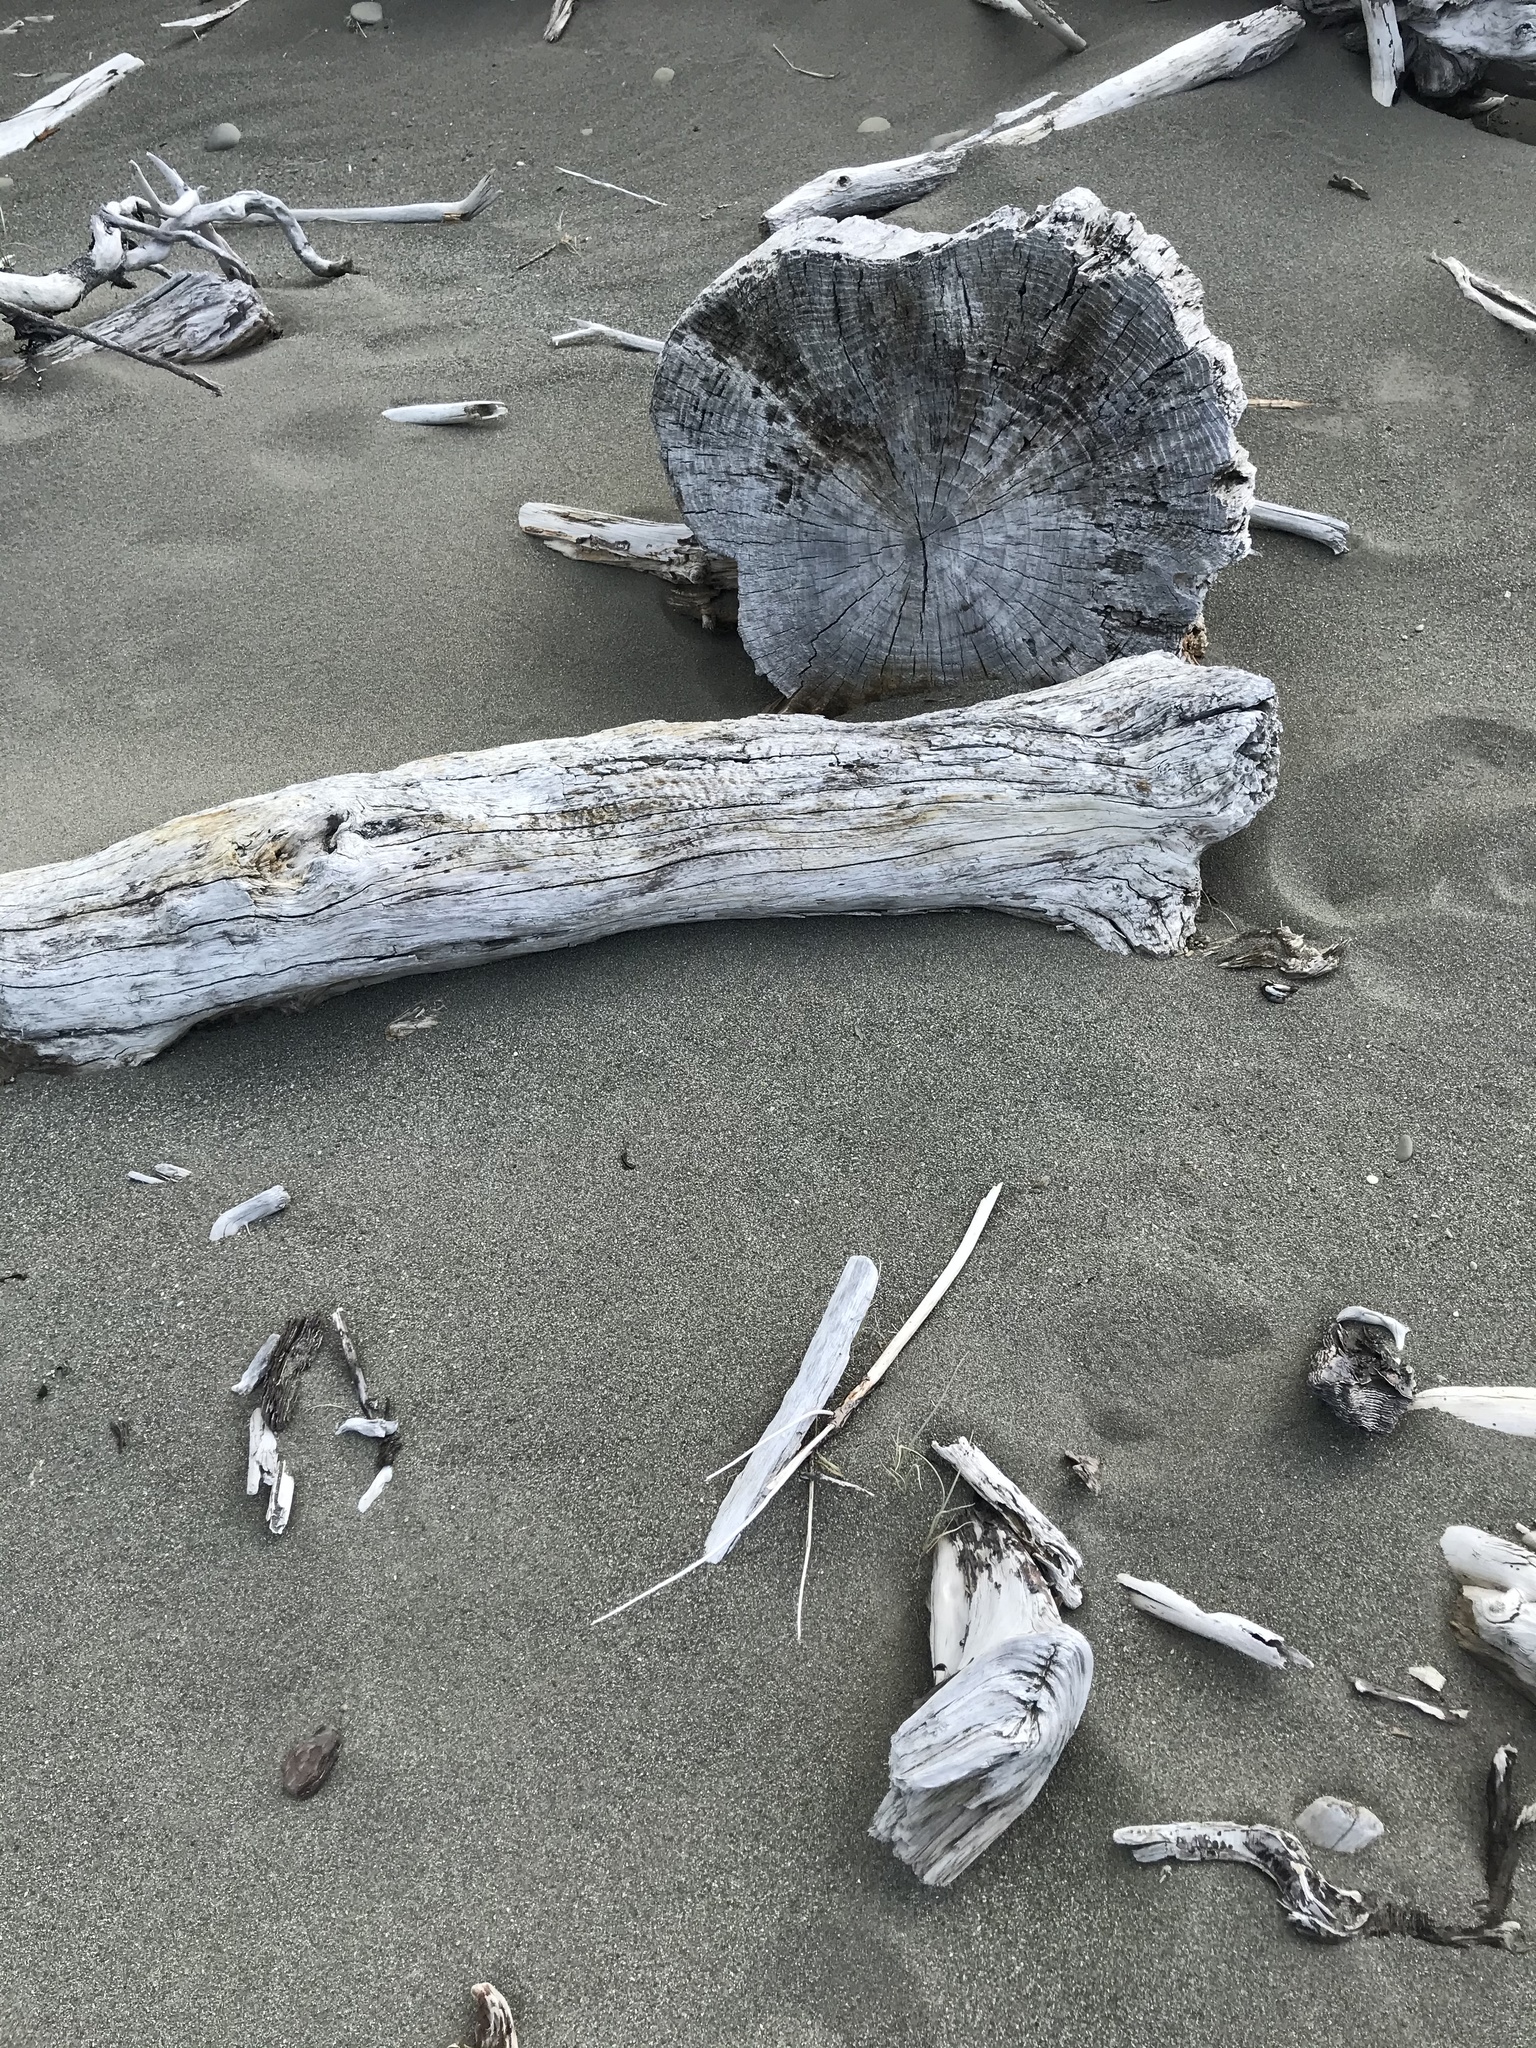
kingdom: Plantae
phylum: Tracheophyta
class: Liliopsida
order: Poales
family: Poaceae
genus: Spinifex
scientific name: Spinifex sericeus
